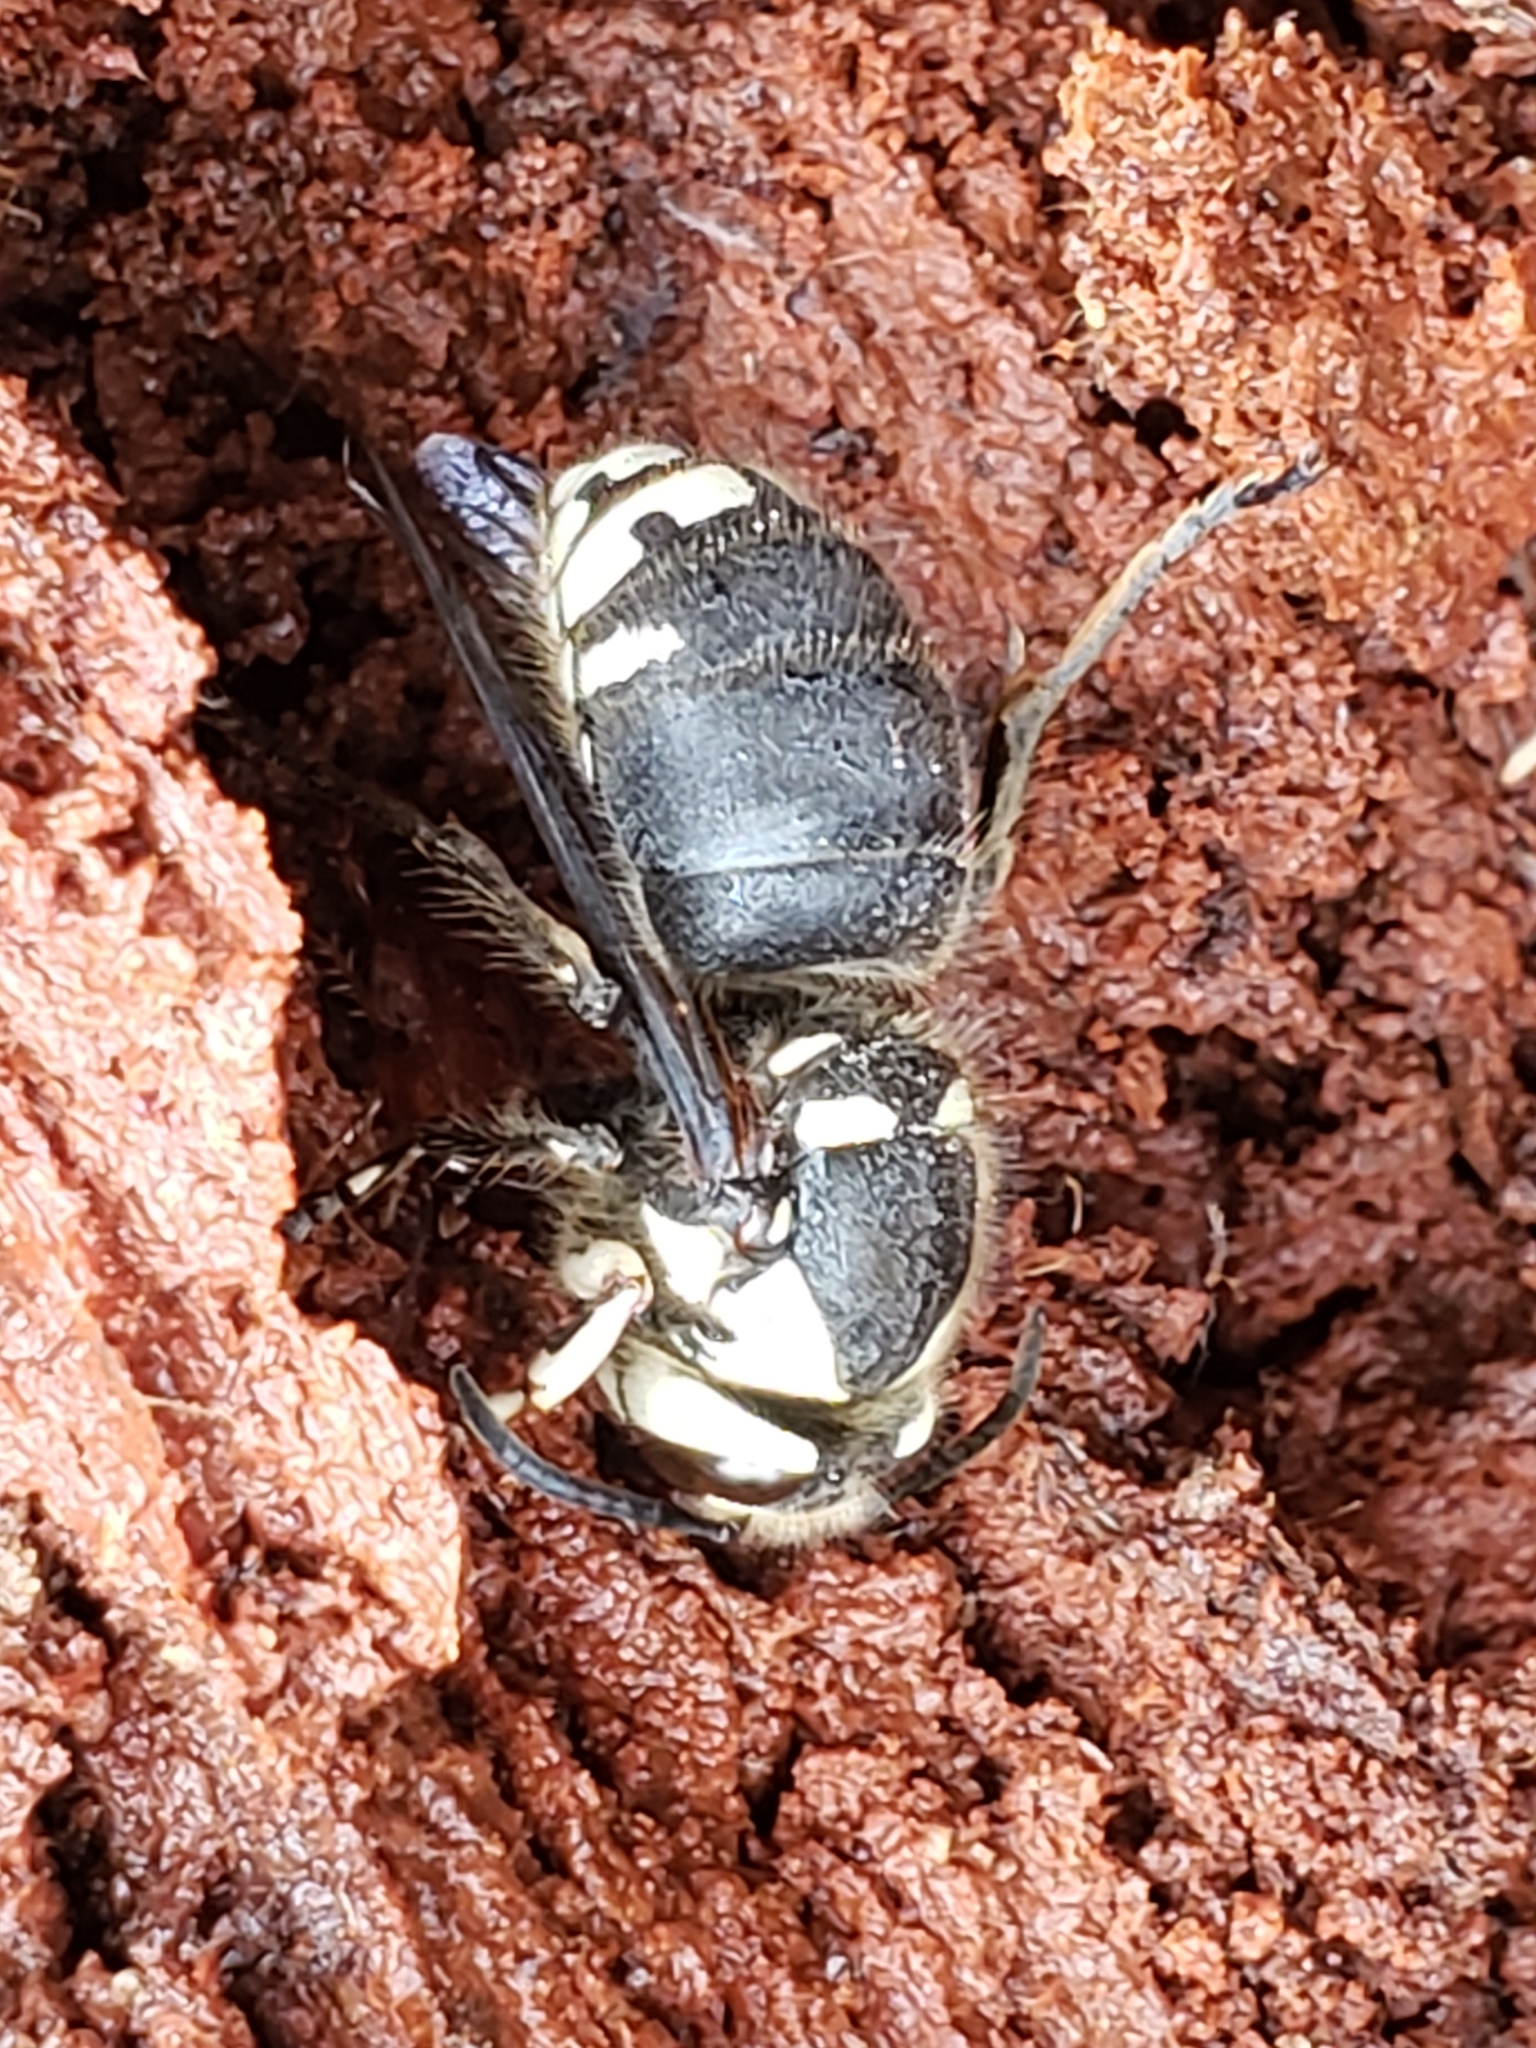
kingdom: Animalia
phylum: Arthropoda
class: Insecta
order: Hymenoptera
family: Vespidae
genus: Dolichovespula
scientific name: Dolichovespula maculata
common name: Bald-faced hornet
